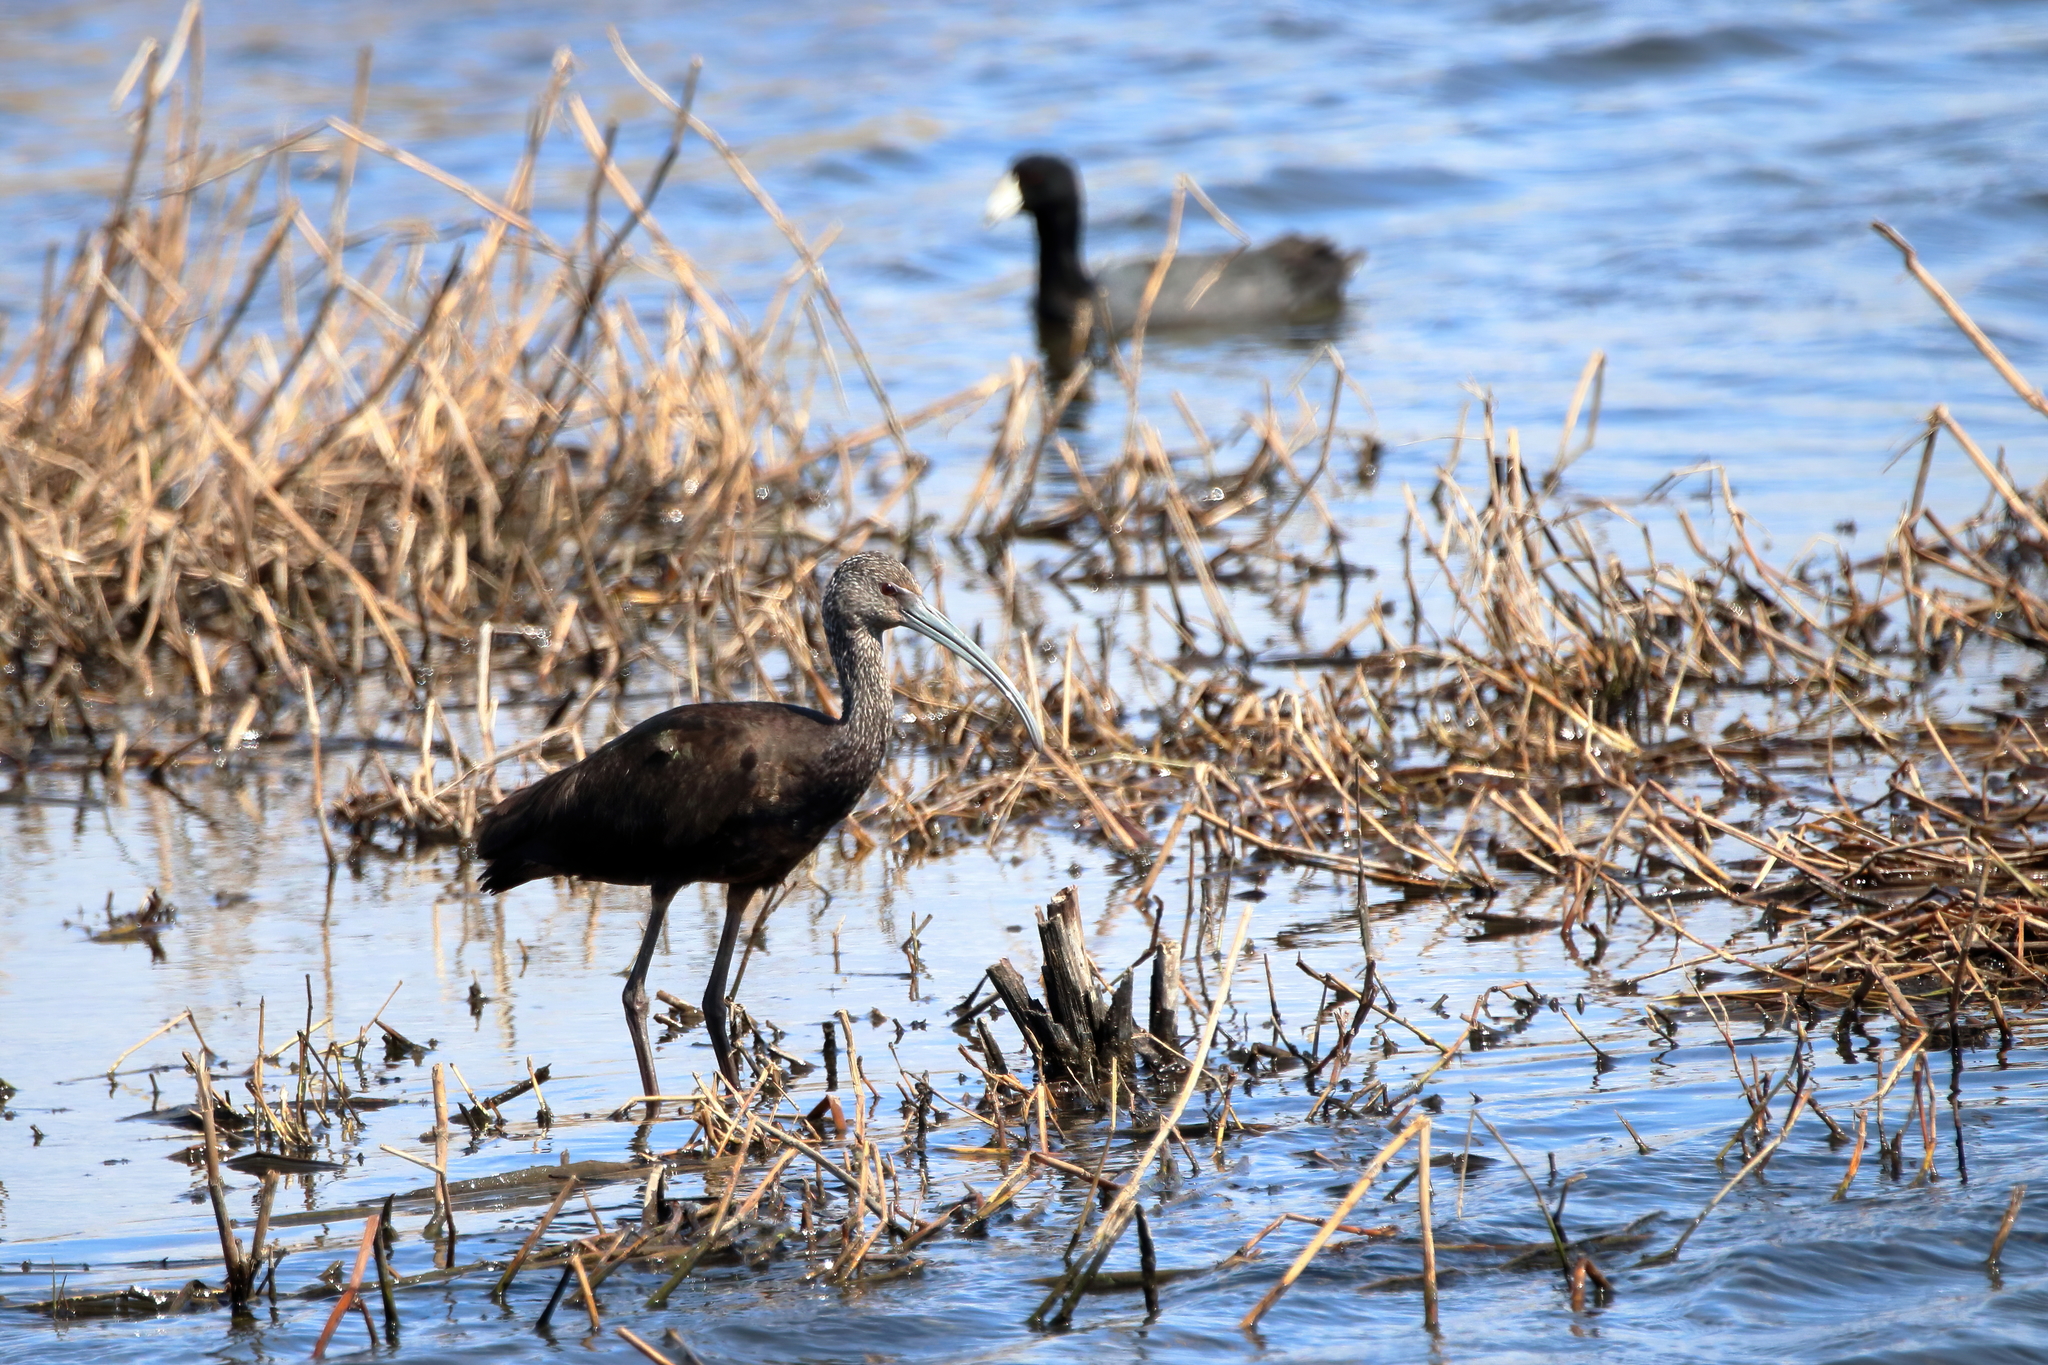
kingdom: Animalia
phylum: Chordata
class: Aves
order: Pelecaniformes
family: Threskiornithidae
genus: Plegadis
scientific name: Plegadis falcinellus
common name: Glossy ibis
